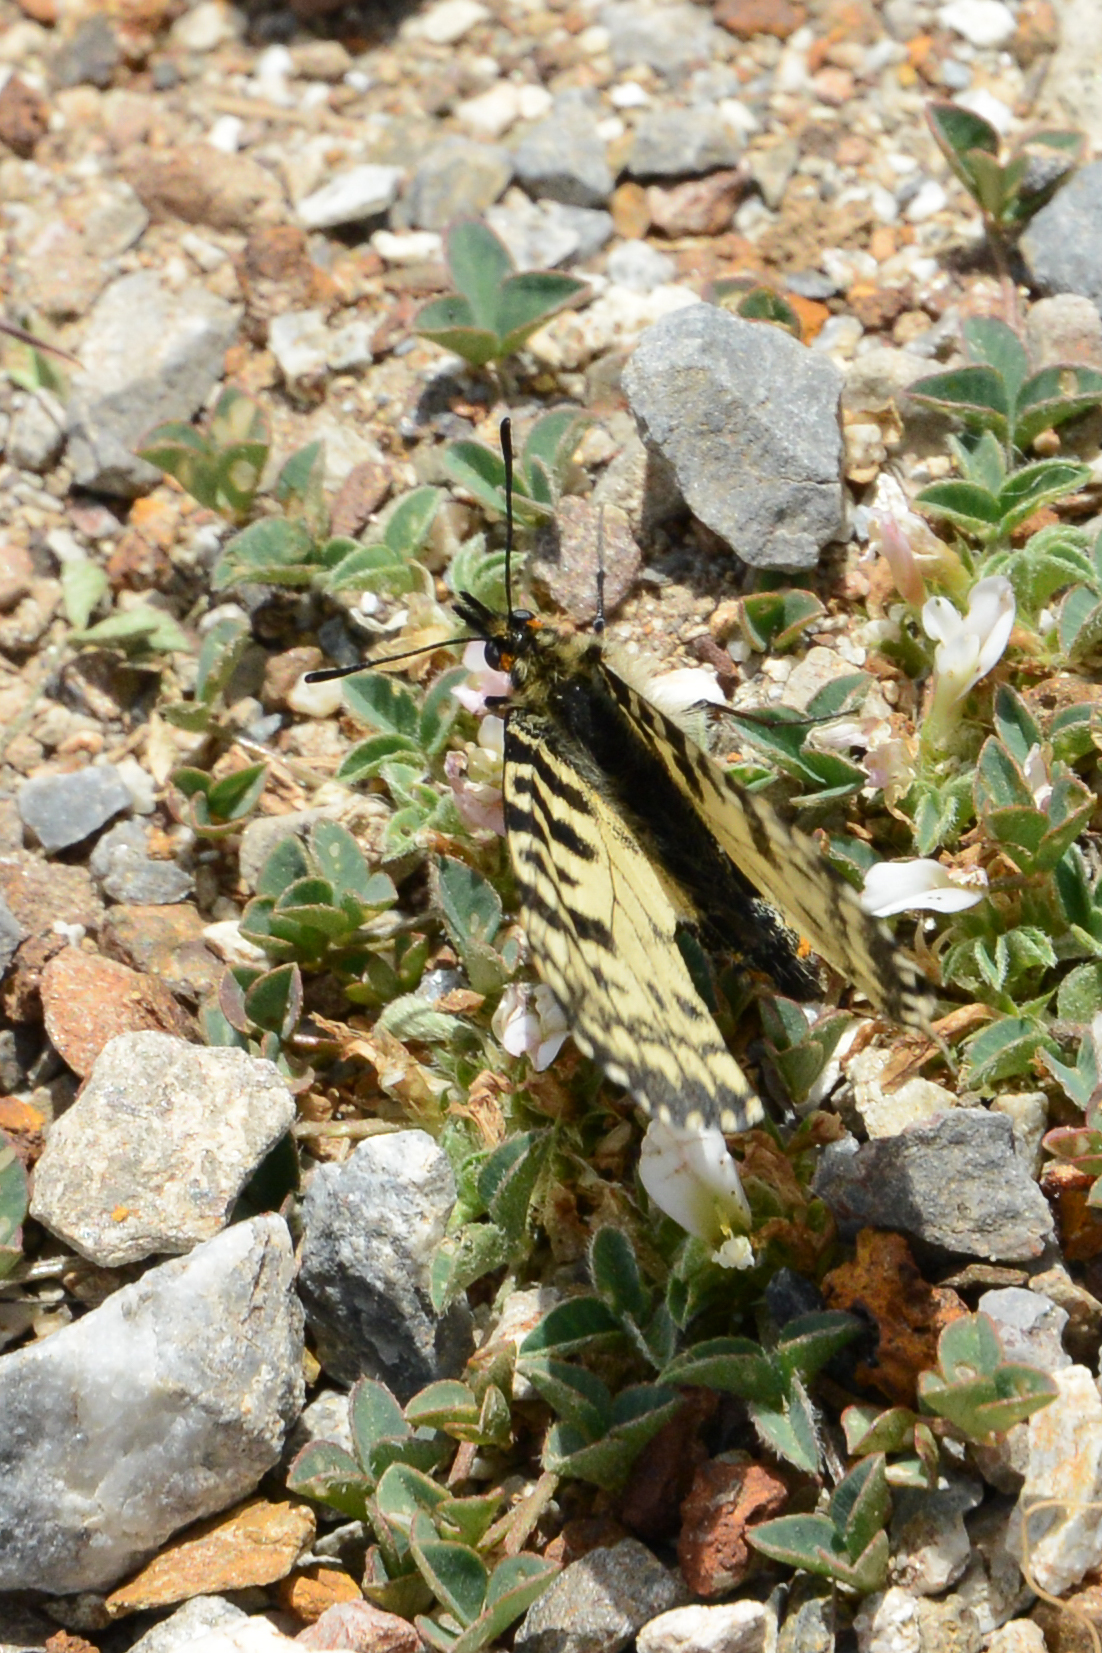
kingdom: Animalia
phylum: Arthropoda
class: Insecta
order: Lepidoptera
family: Papilionidae
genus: Zerynthia
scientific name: Zerynthia cretica
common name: Cretan festoon
